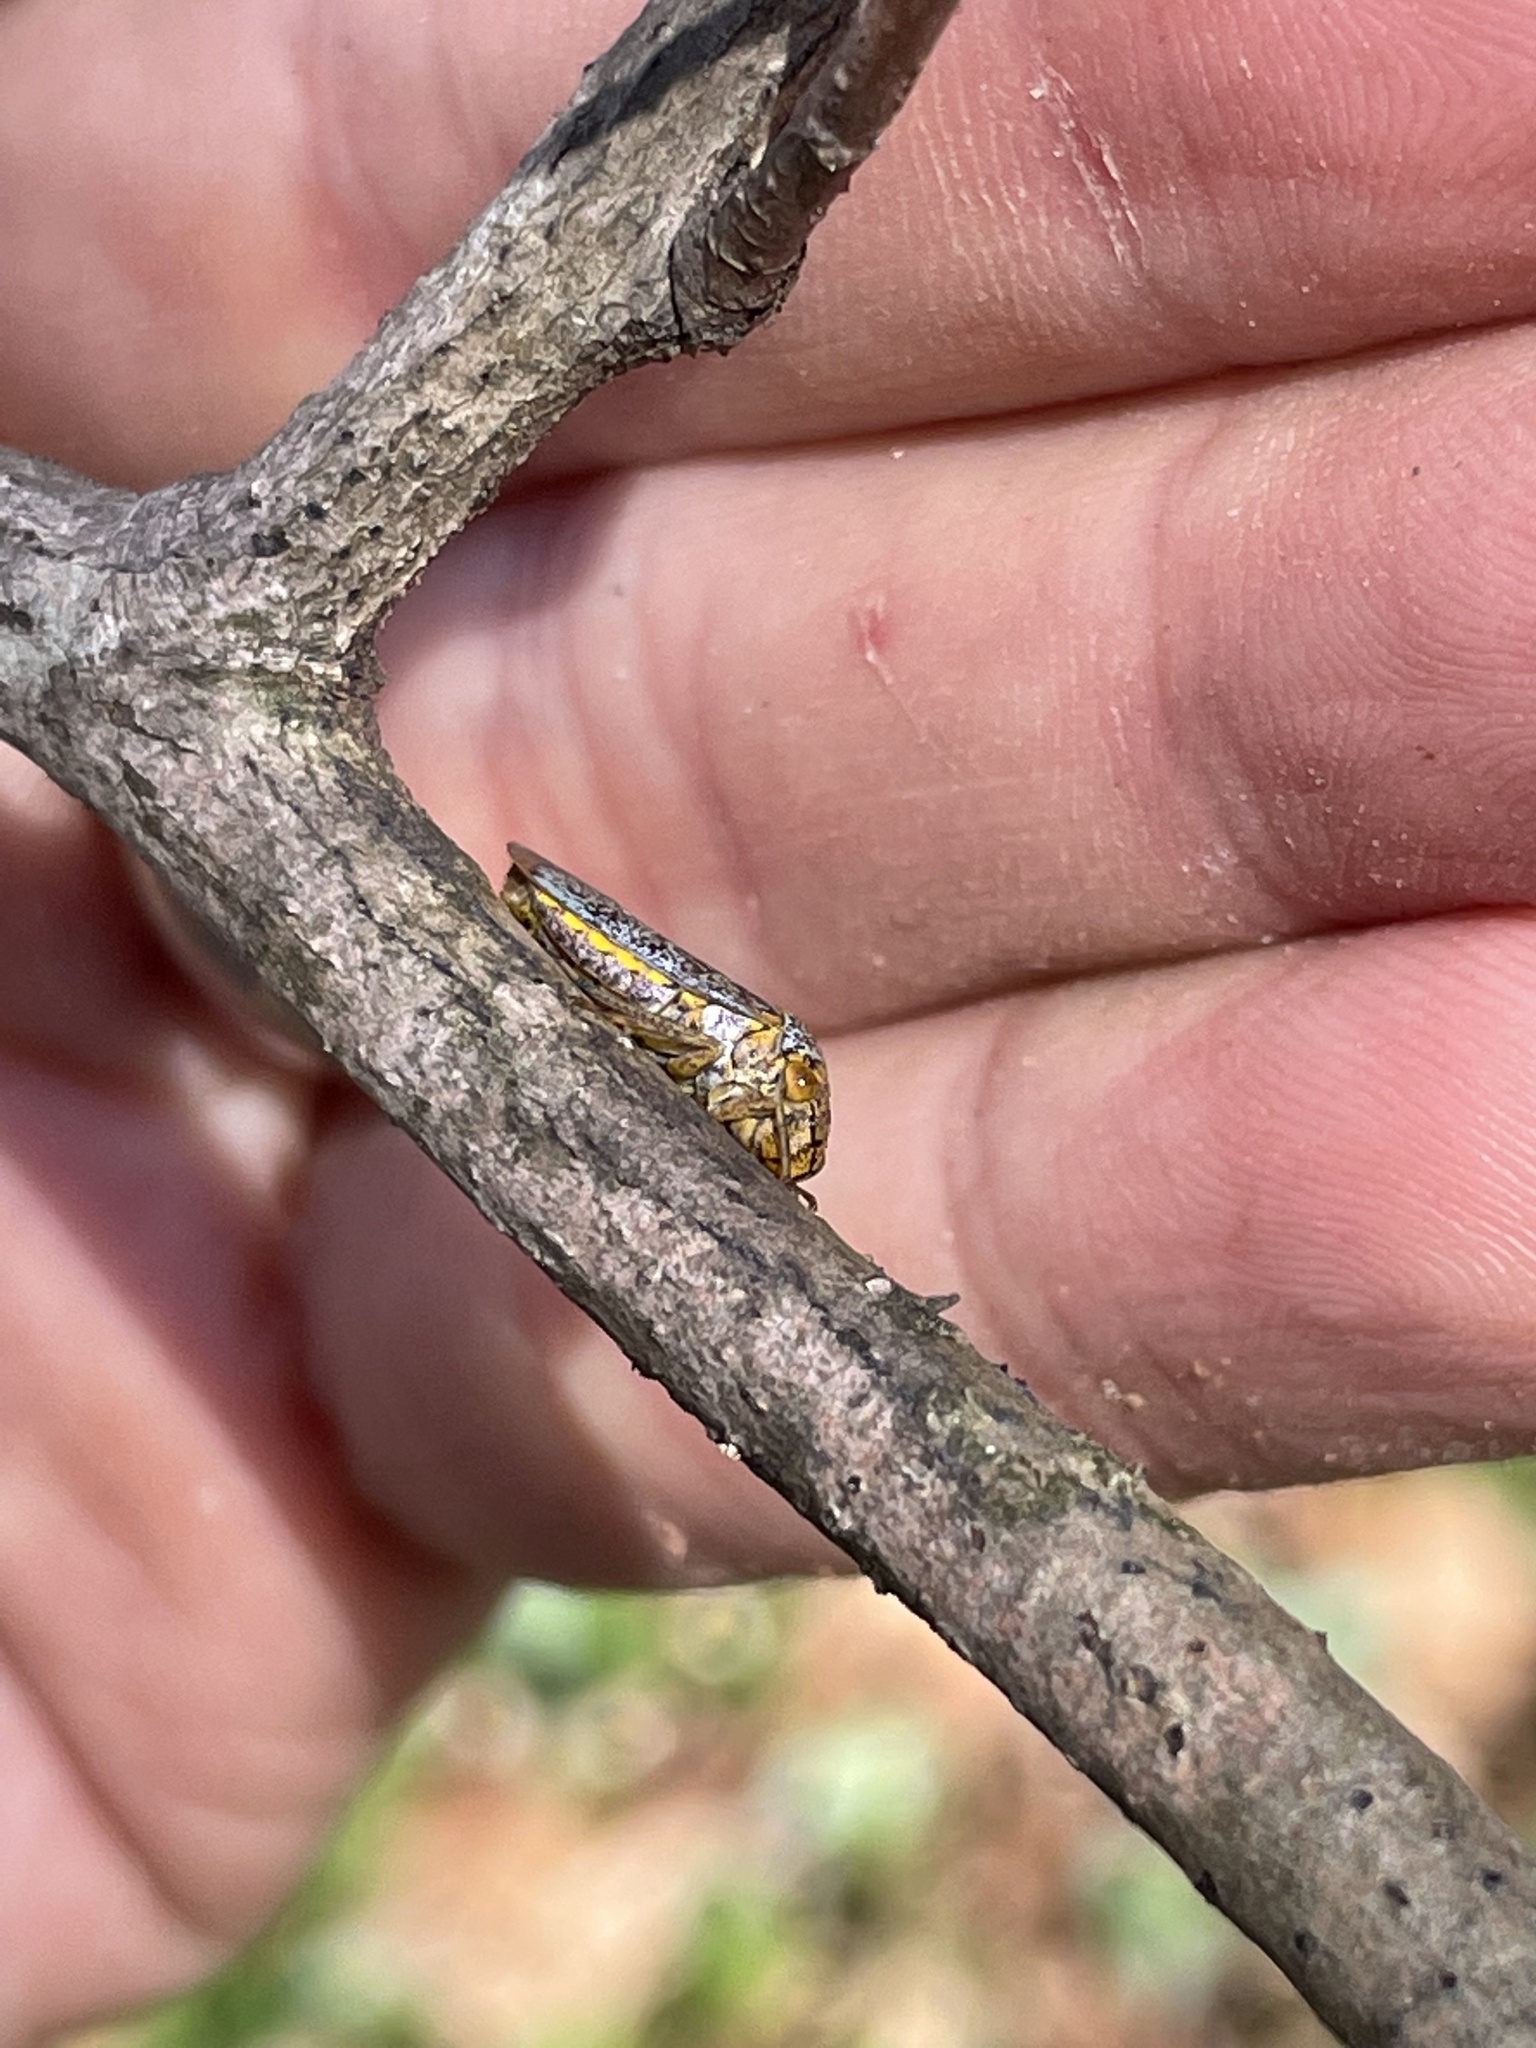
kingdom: Animalia
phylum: Arthropoda
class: Insecta
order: Hemiptera
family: Cicadellidae
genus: Oncometopia
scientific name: Oncometopia orbona
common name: Broad-headed sharpshooter
